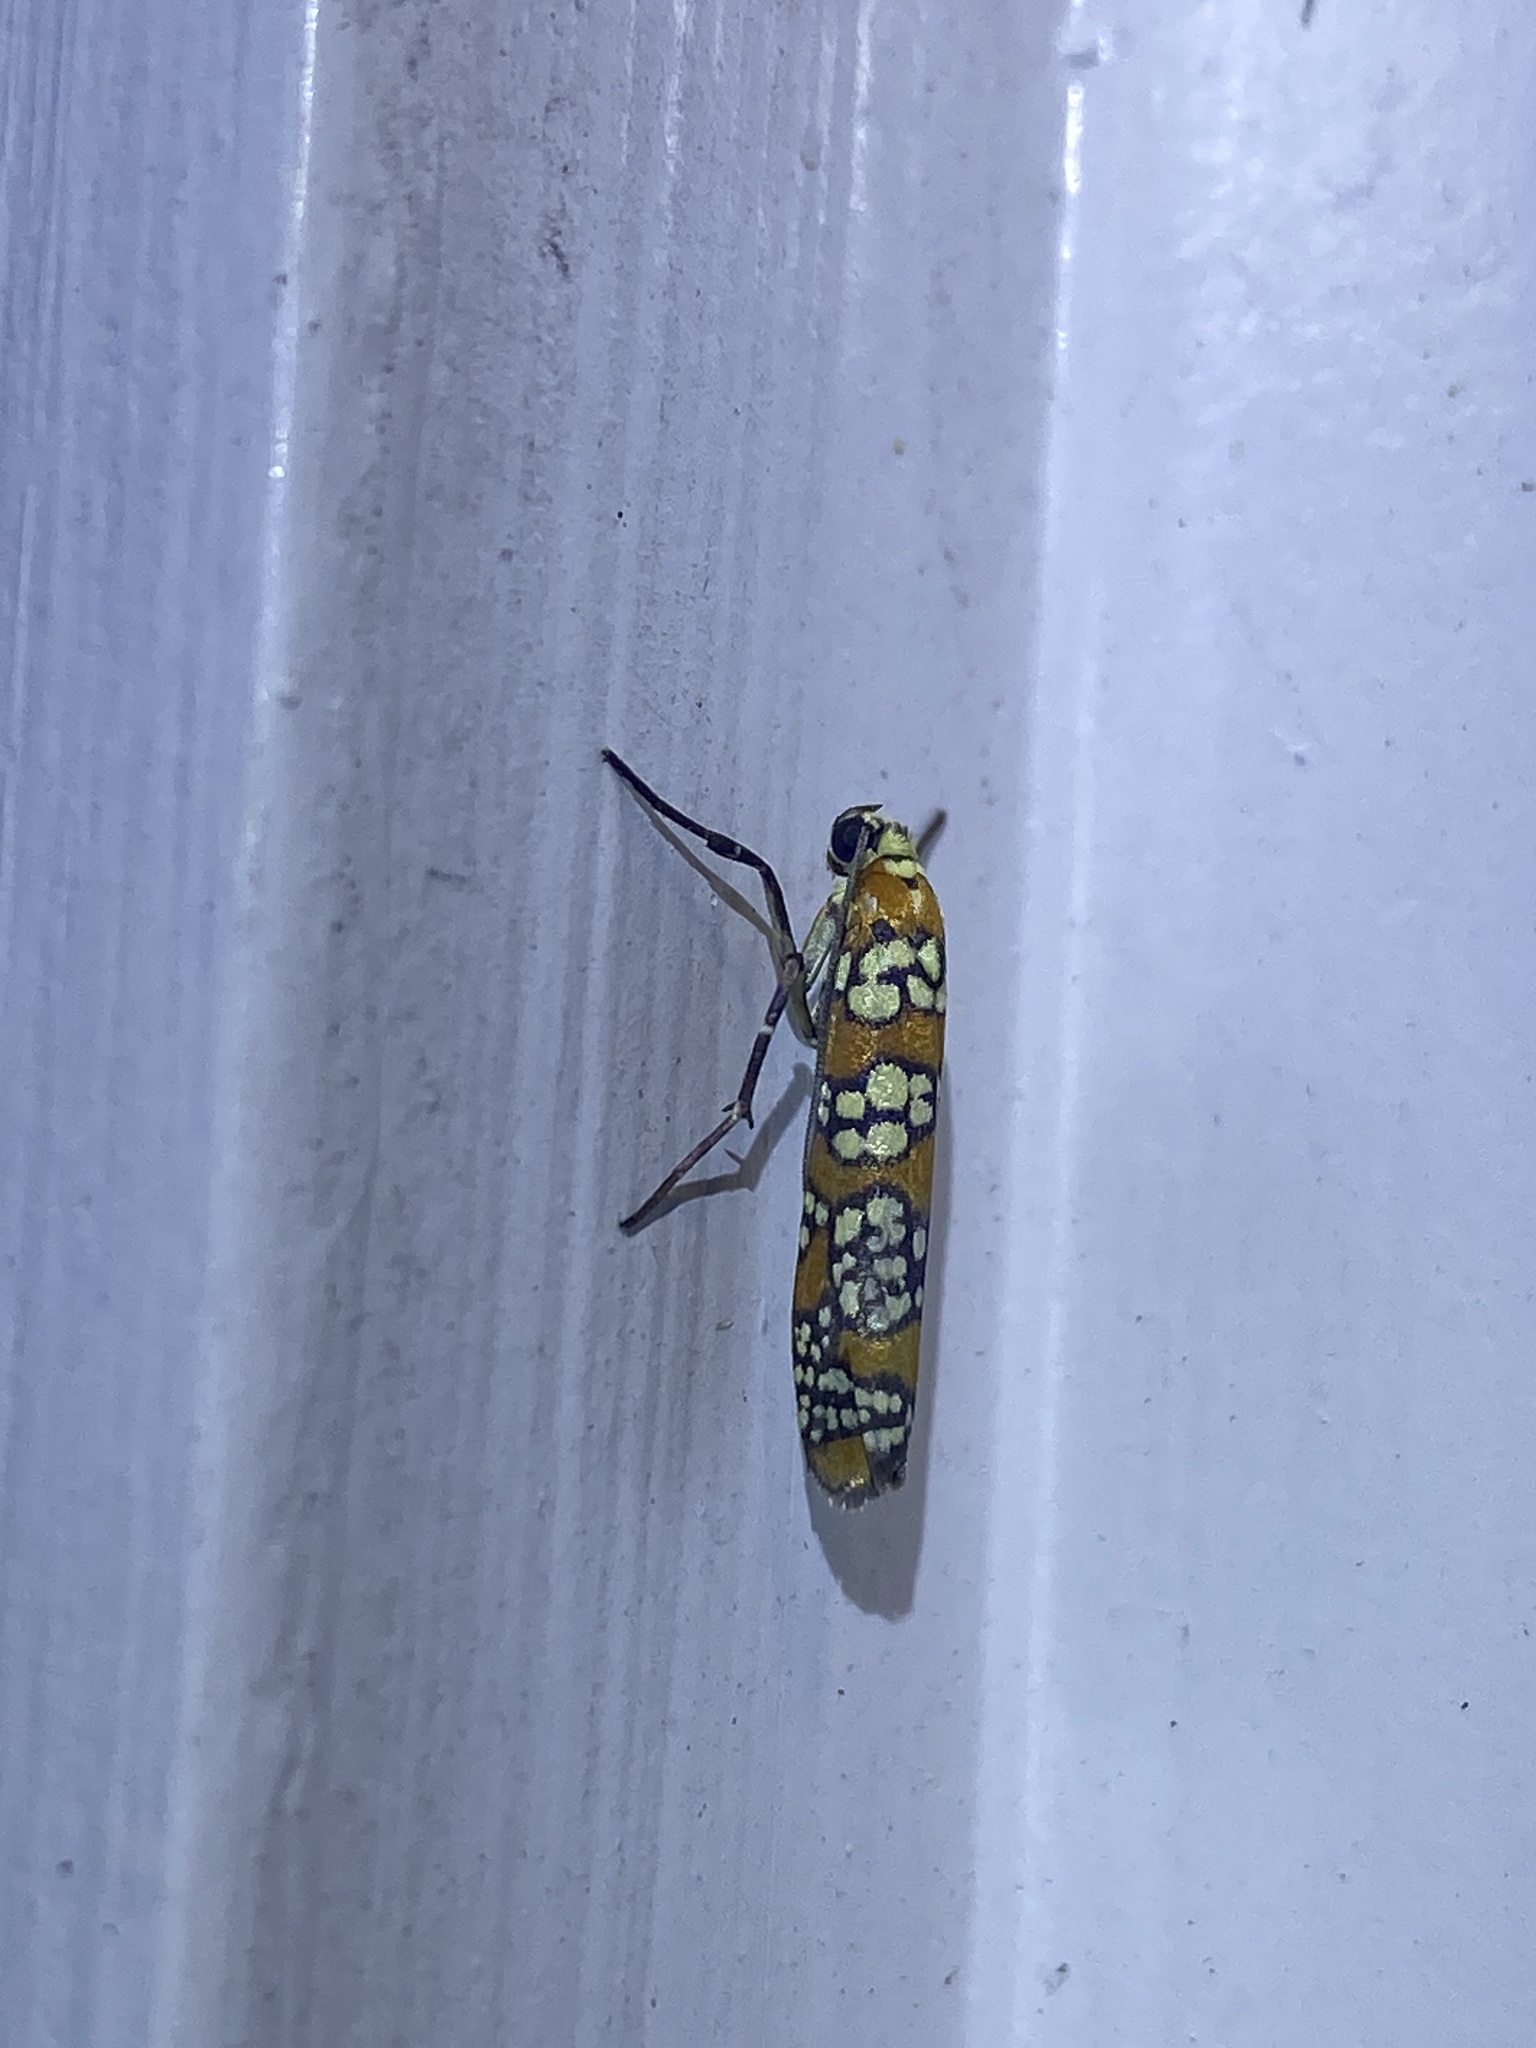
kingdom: Animalia
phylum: Arthropoda
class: Insecta
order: Lepidoptera
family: Attevidae
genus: Atteva
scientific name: Atteva punctella
